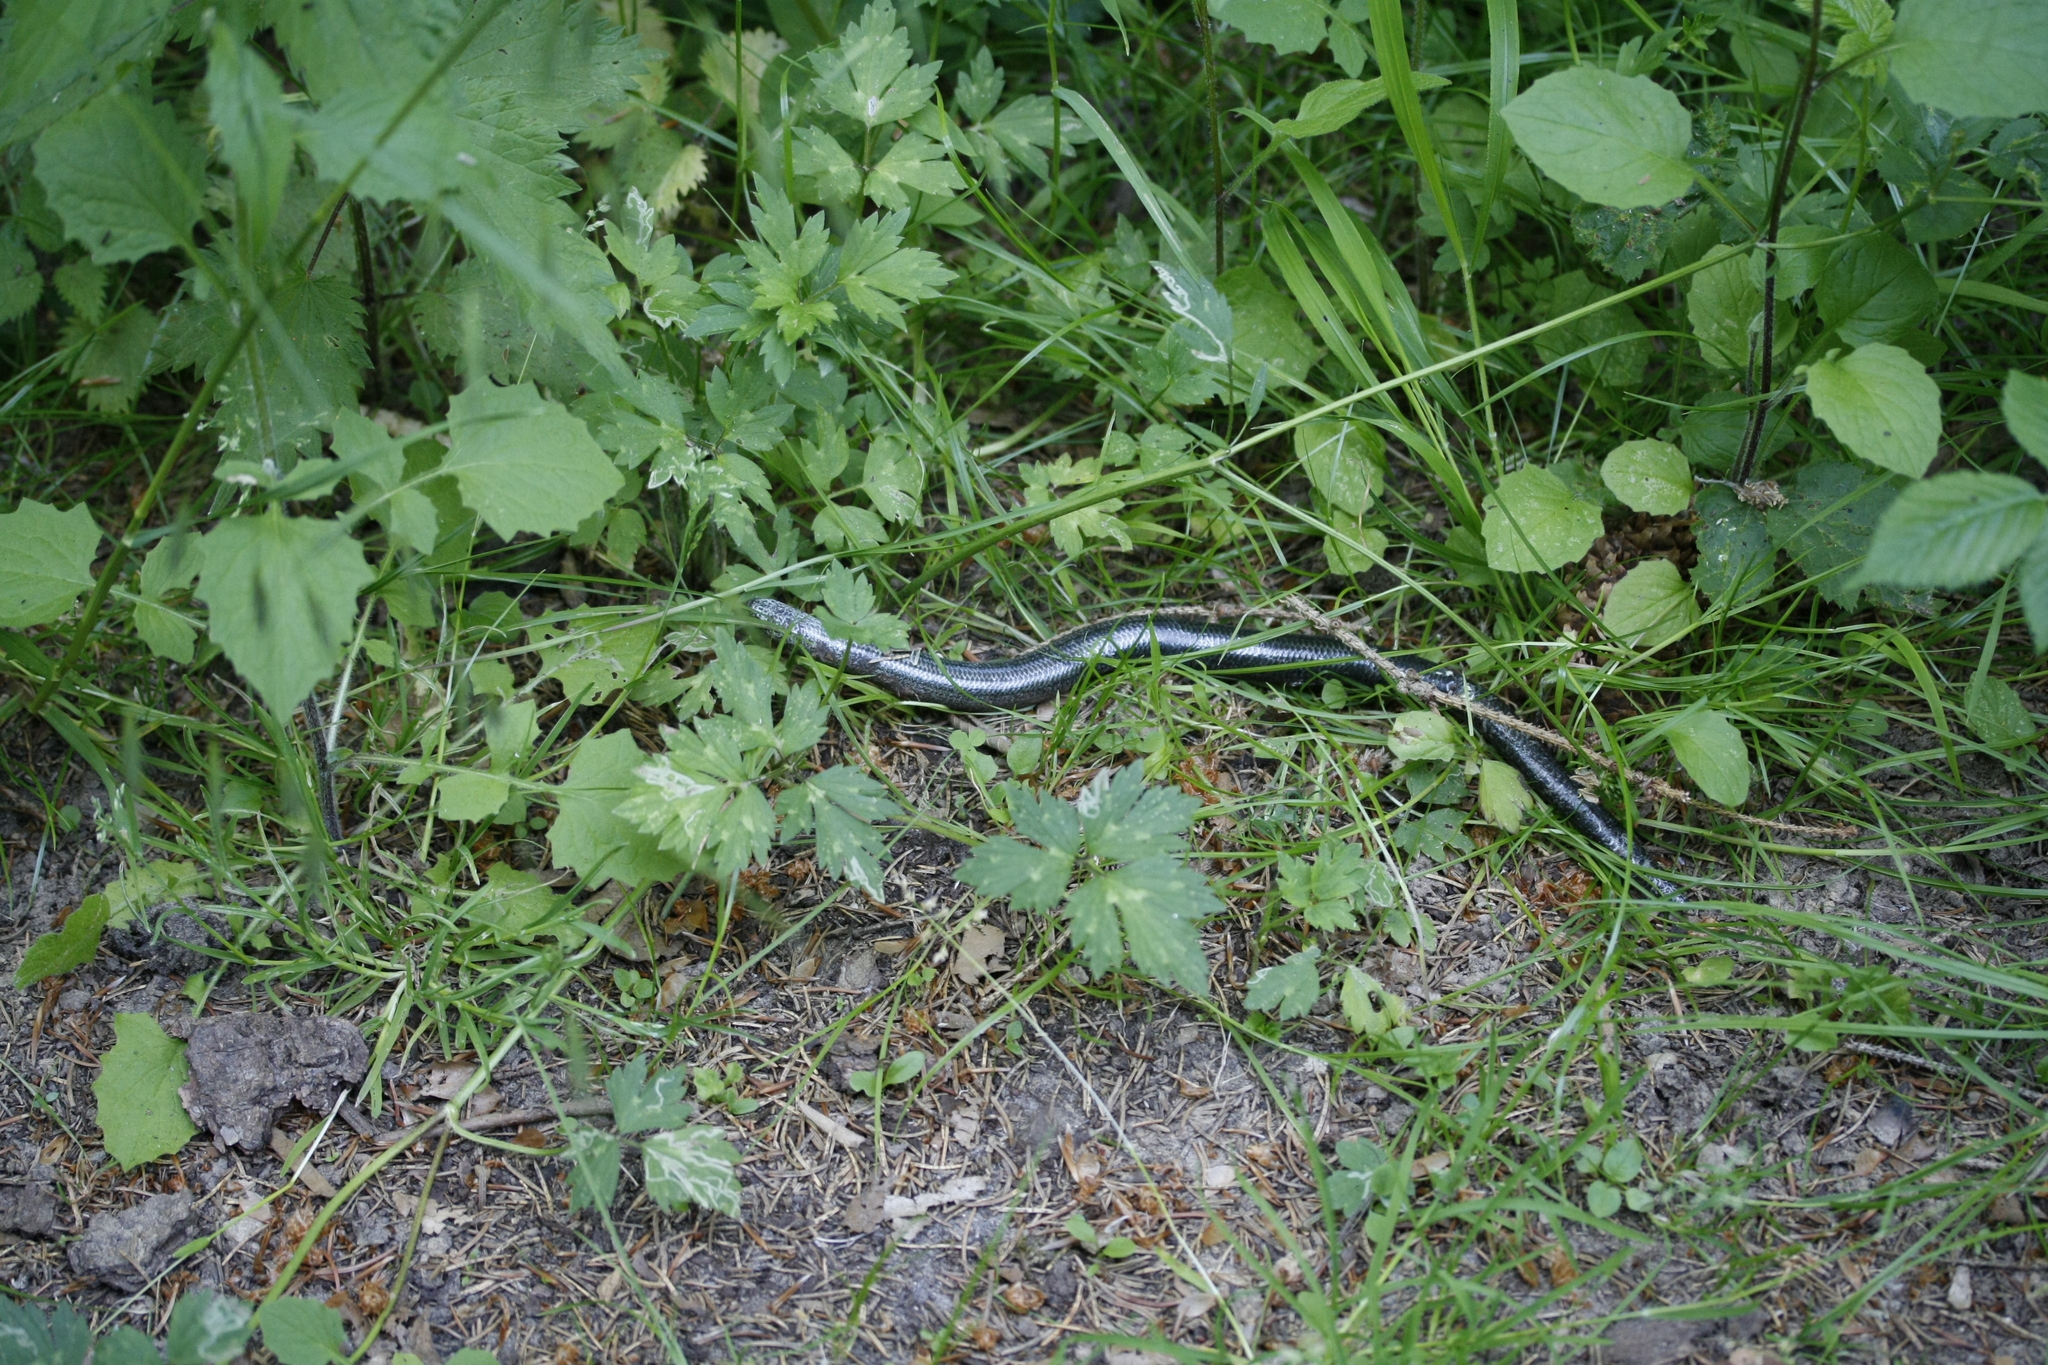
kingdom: Animalia
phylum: Chordata
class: Squamata
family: Anguidae
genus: Anguis
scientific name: Anguis fragilis
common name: Slow worm
